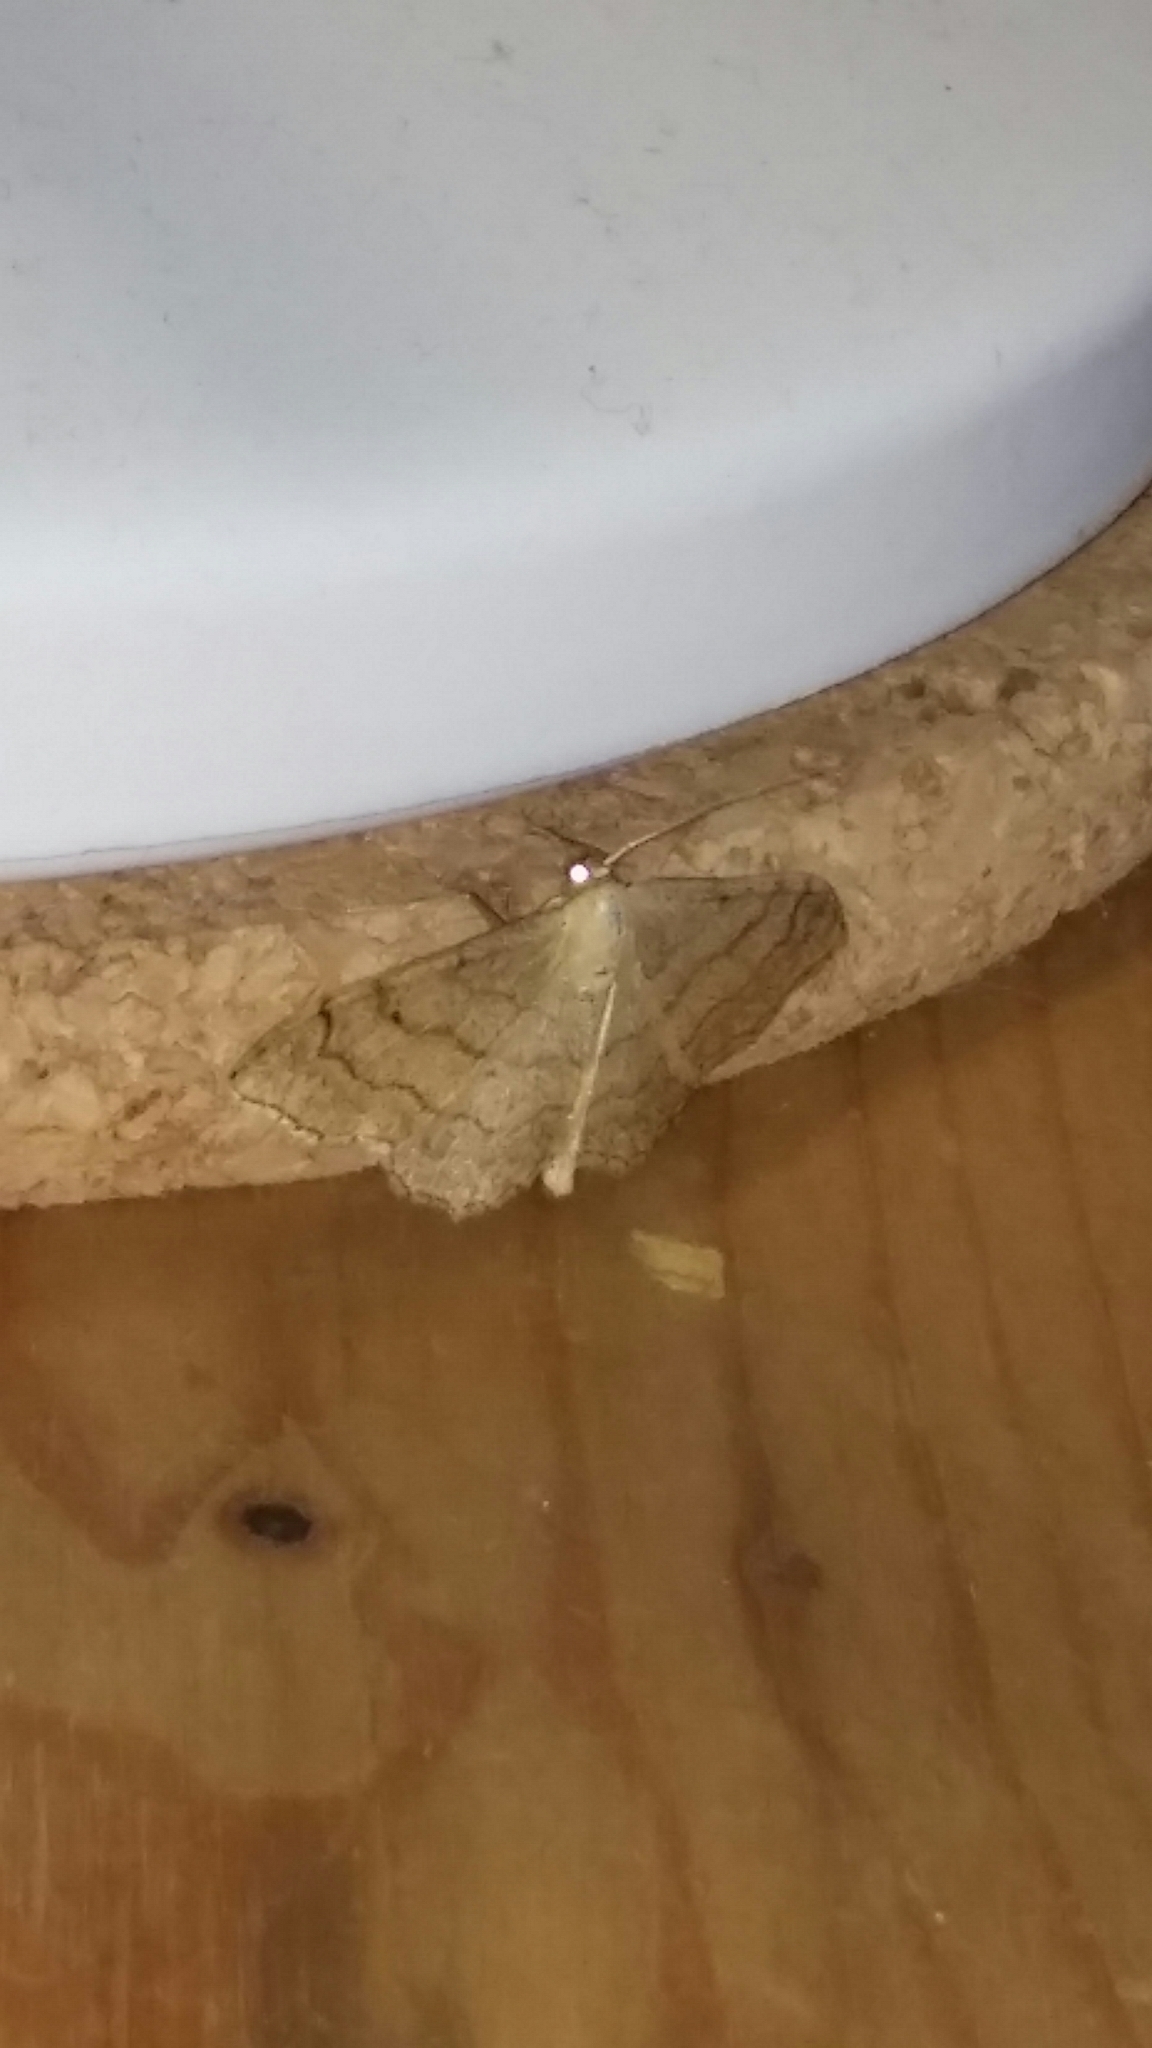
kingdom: Animalia
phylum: Arthropoda
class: Insecta
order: Lepidoptera
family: Geometridae
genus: Idaea
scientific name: Idaea aversata
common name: Riband wave
